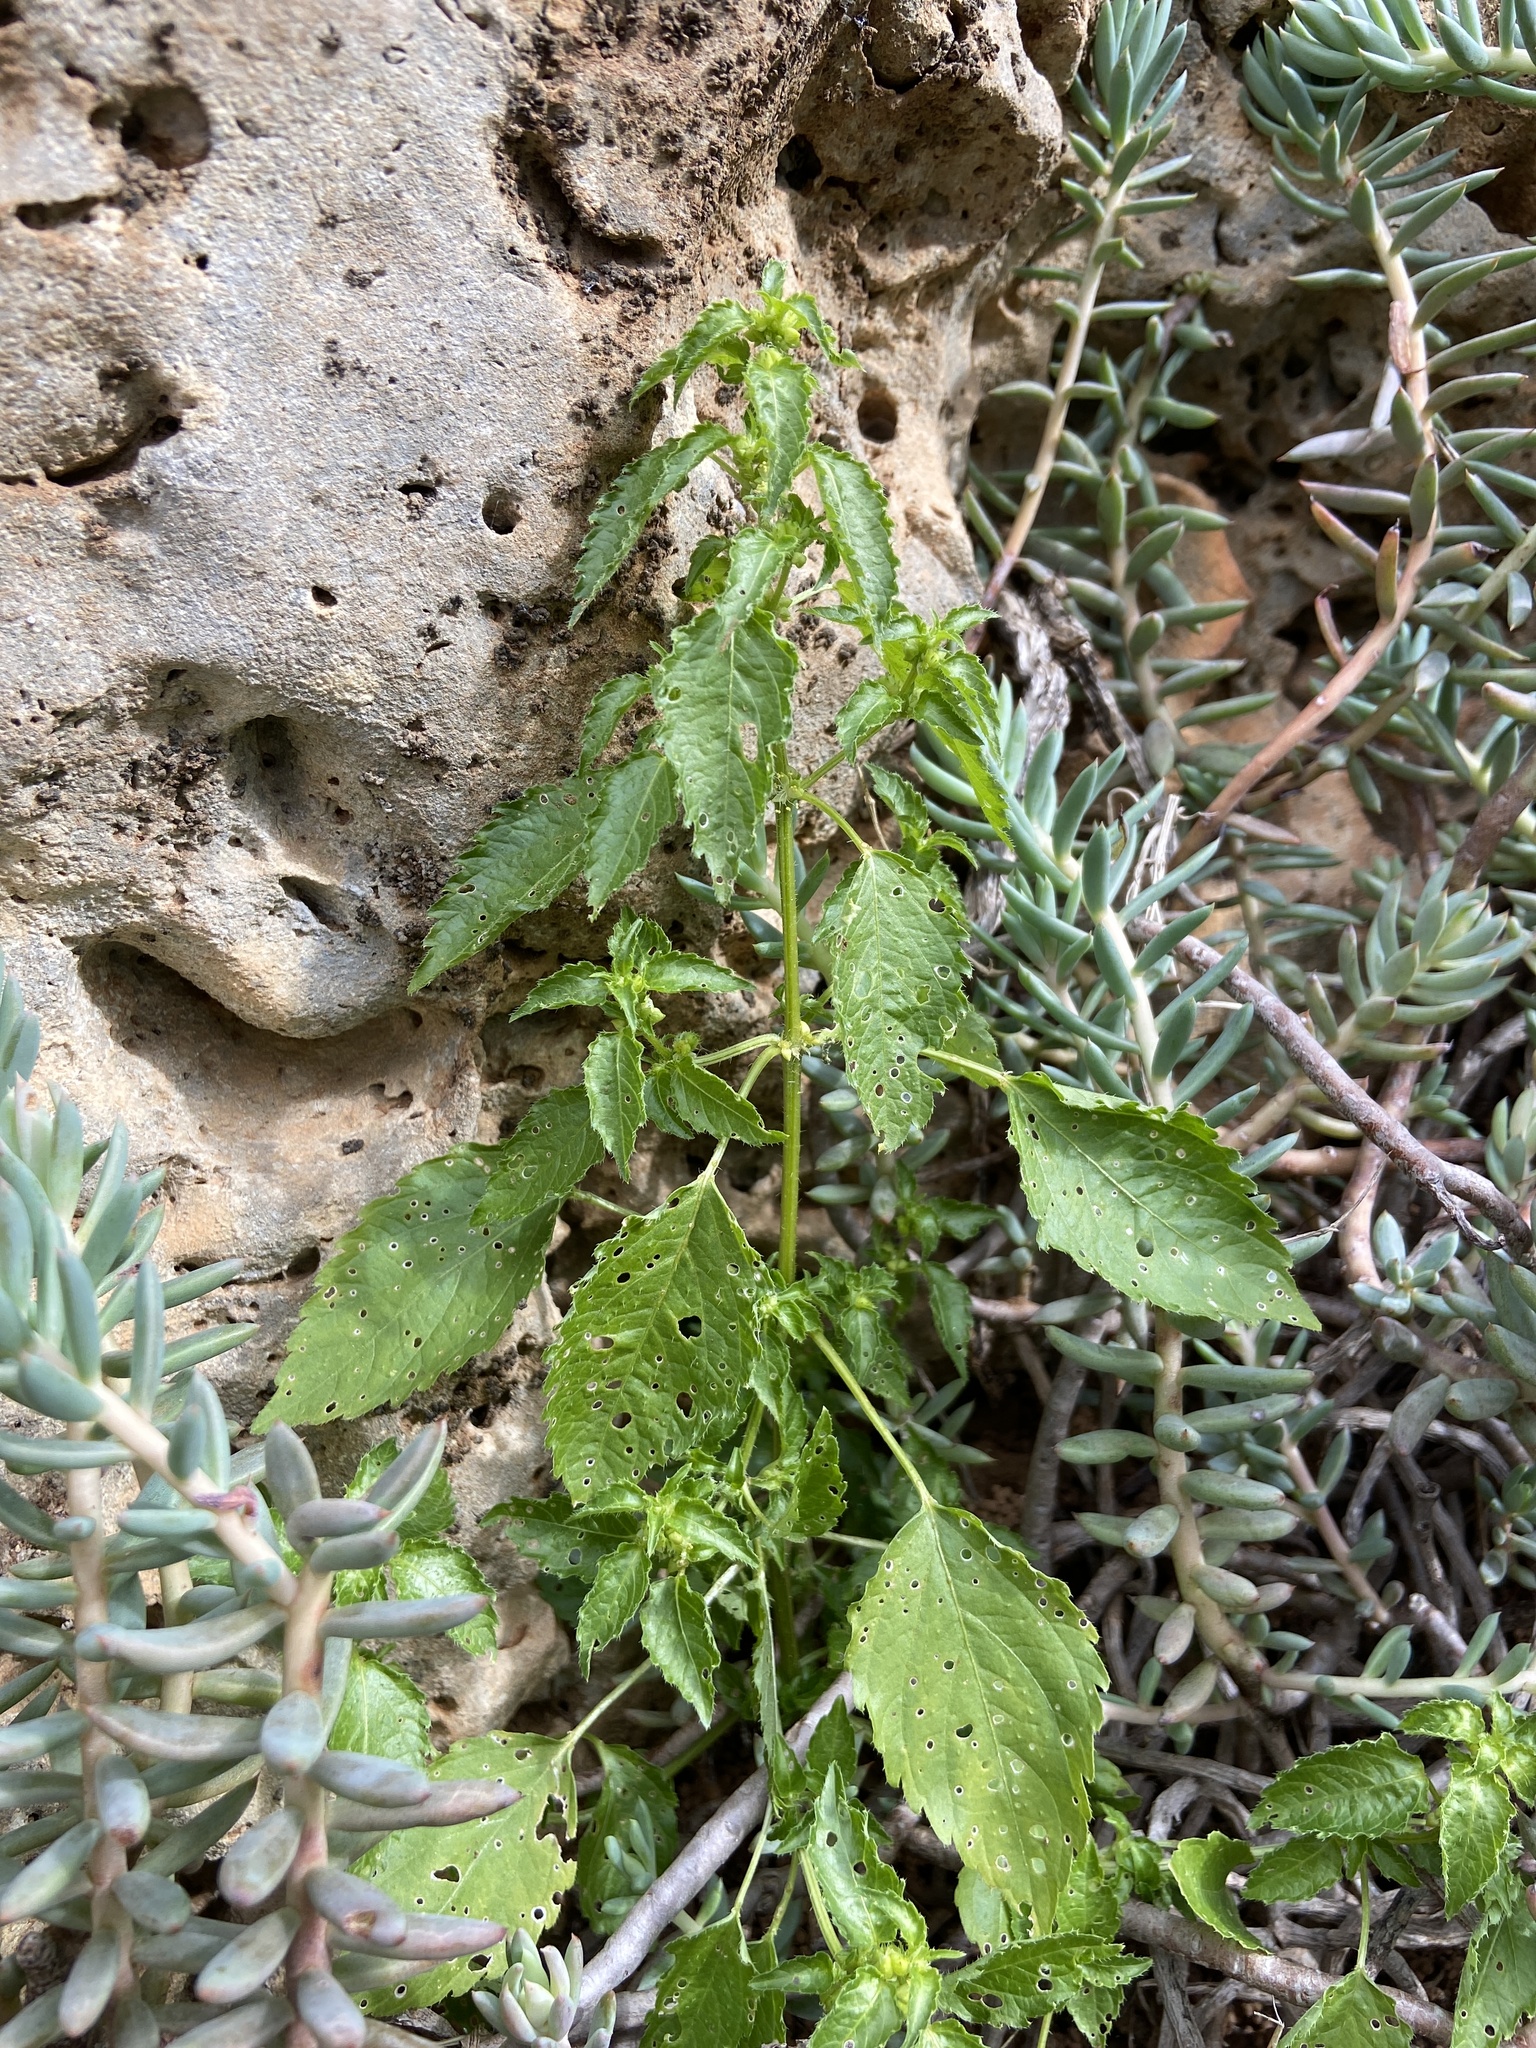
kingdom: Plantae
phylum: Tracheophyta
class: Magnoliopsida
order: Malpighiales
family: Euphorbiaceae
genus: Mercurialis
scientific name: Mercurialis annua
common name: Annual mercury
